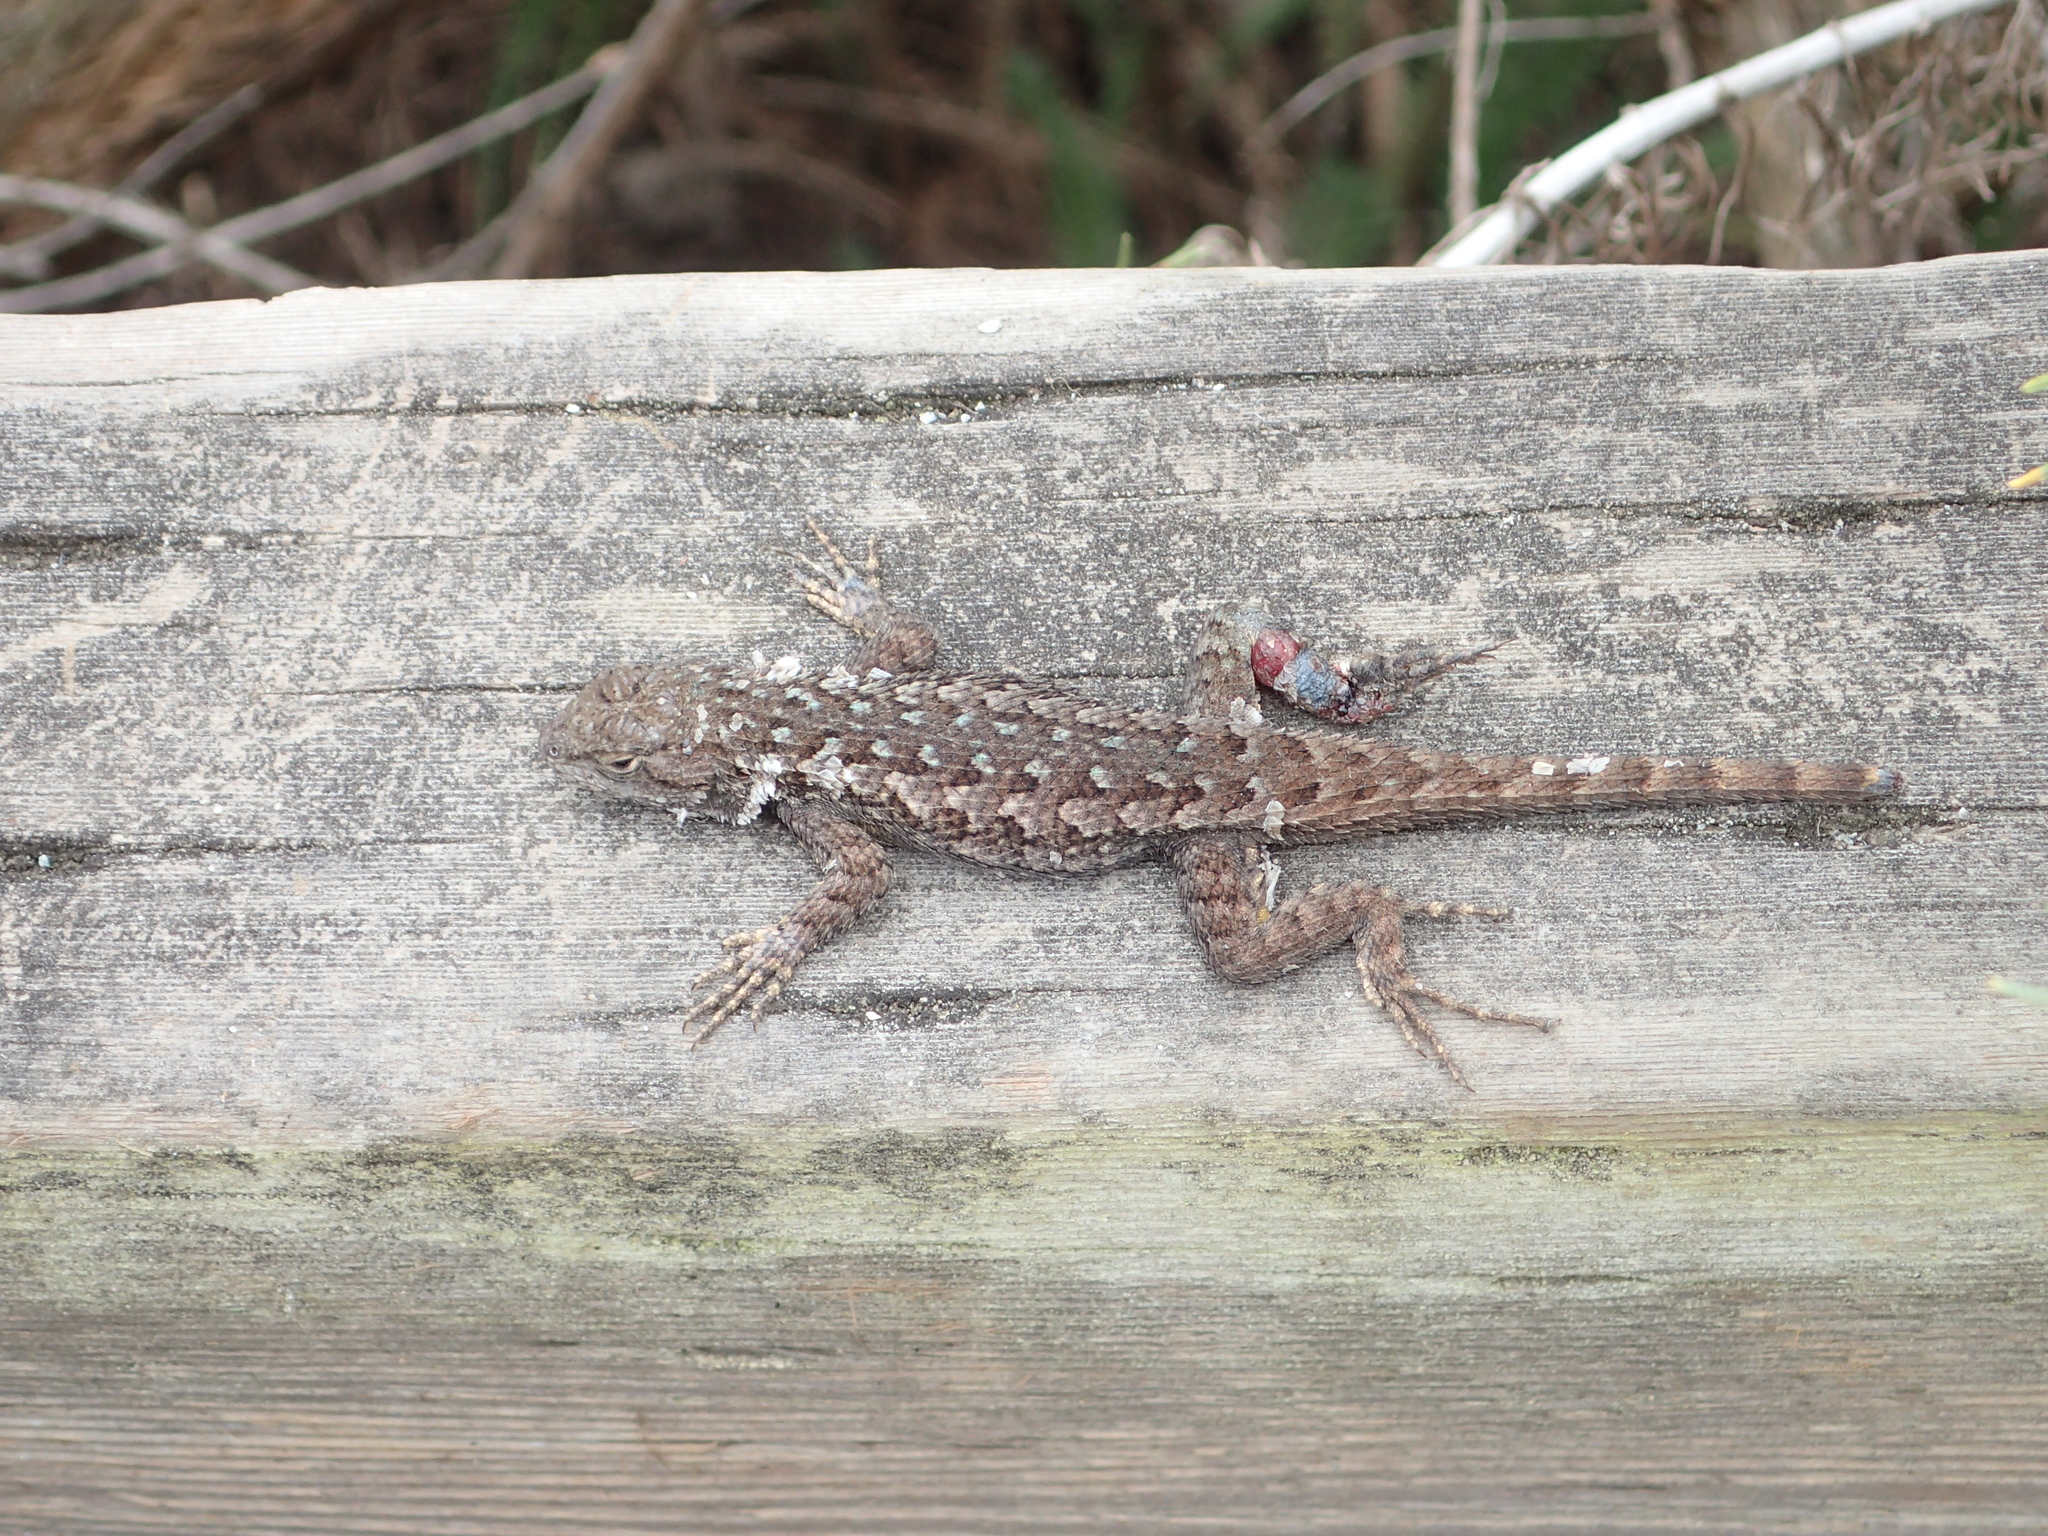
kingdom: Animalia
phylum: Chordata
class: Squamata
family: Phrynosomatidae
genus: Sceloporus
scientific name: Sceloporus occidentalis
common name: Western fence lizard
